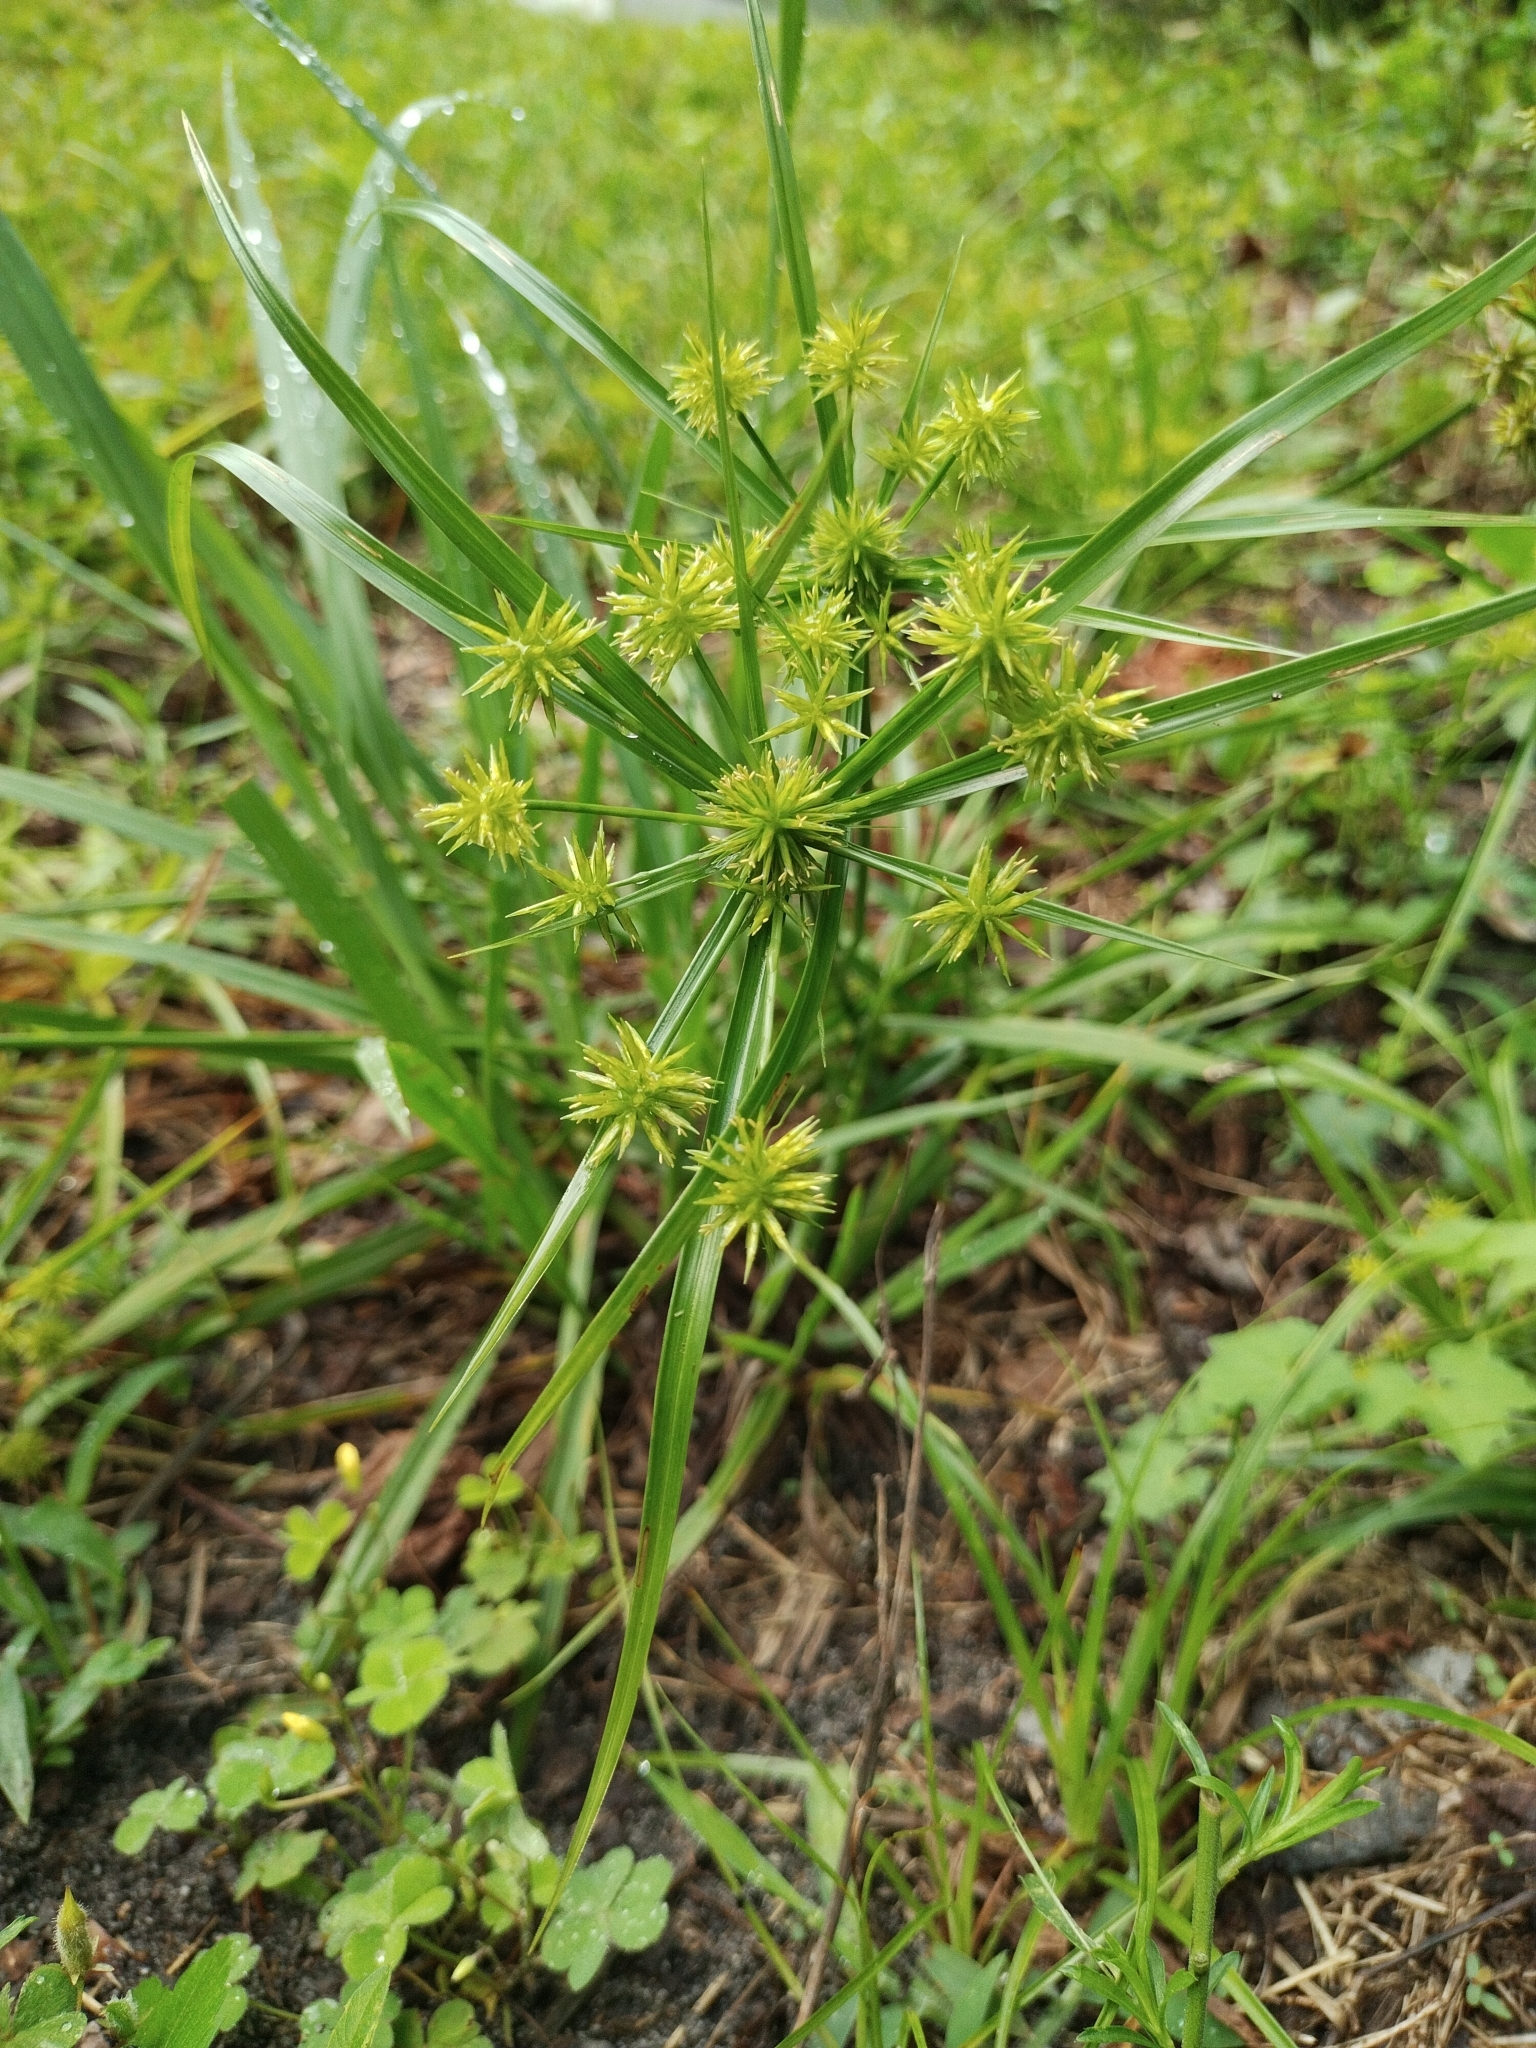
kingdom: Plantae
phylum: Tracheophyta
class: Liliopsida
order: Poales
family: Cyperaceae
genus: Cyperus
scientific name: Cyperus croceus
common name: Baldwin's flatsedge
